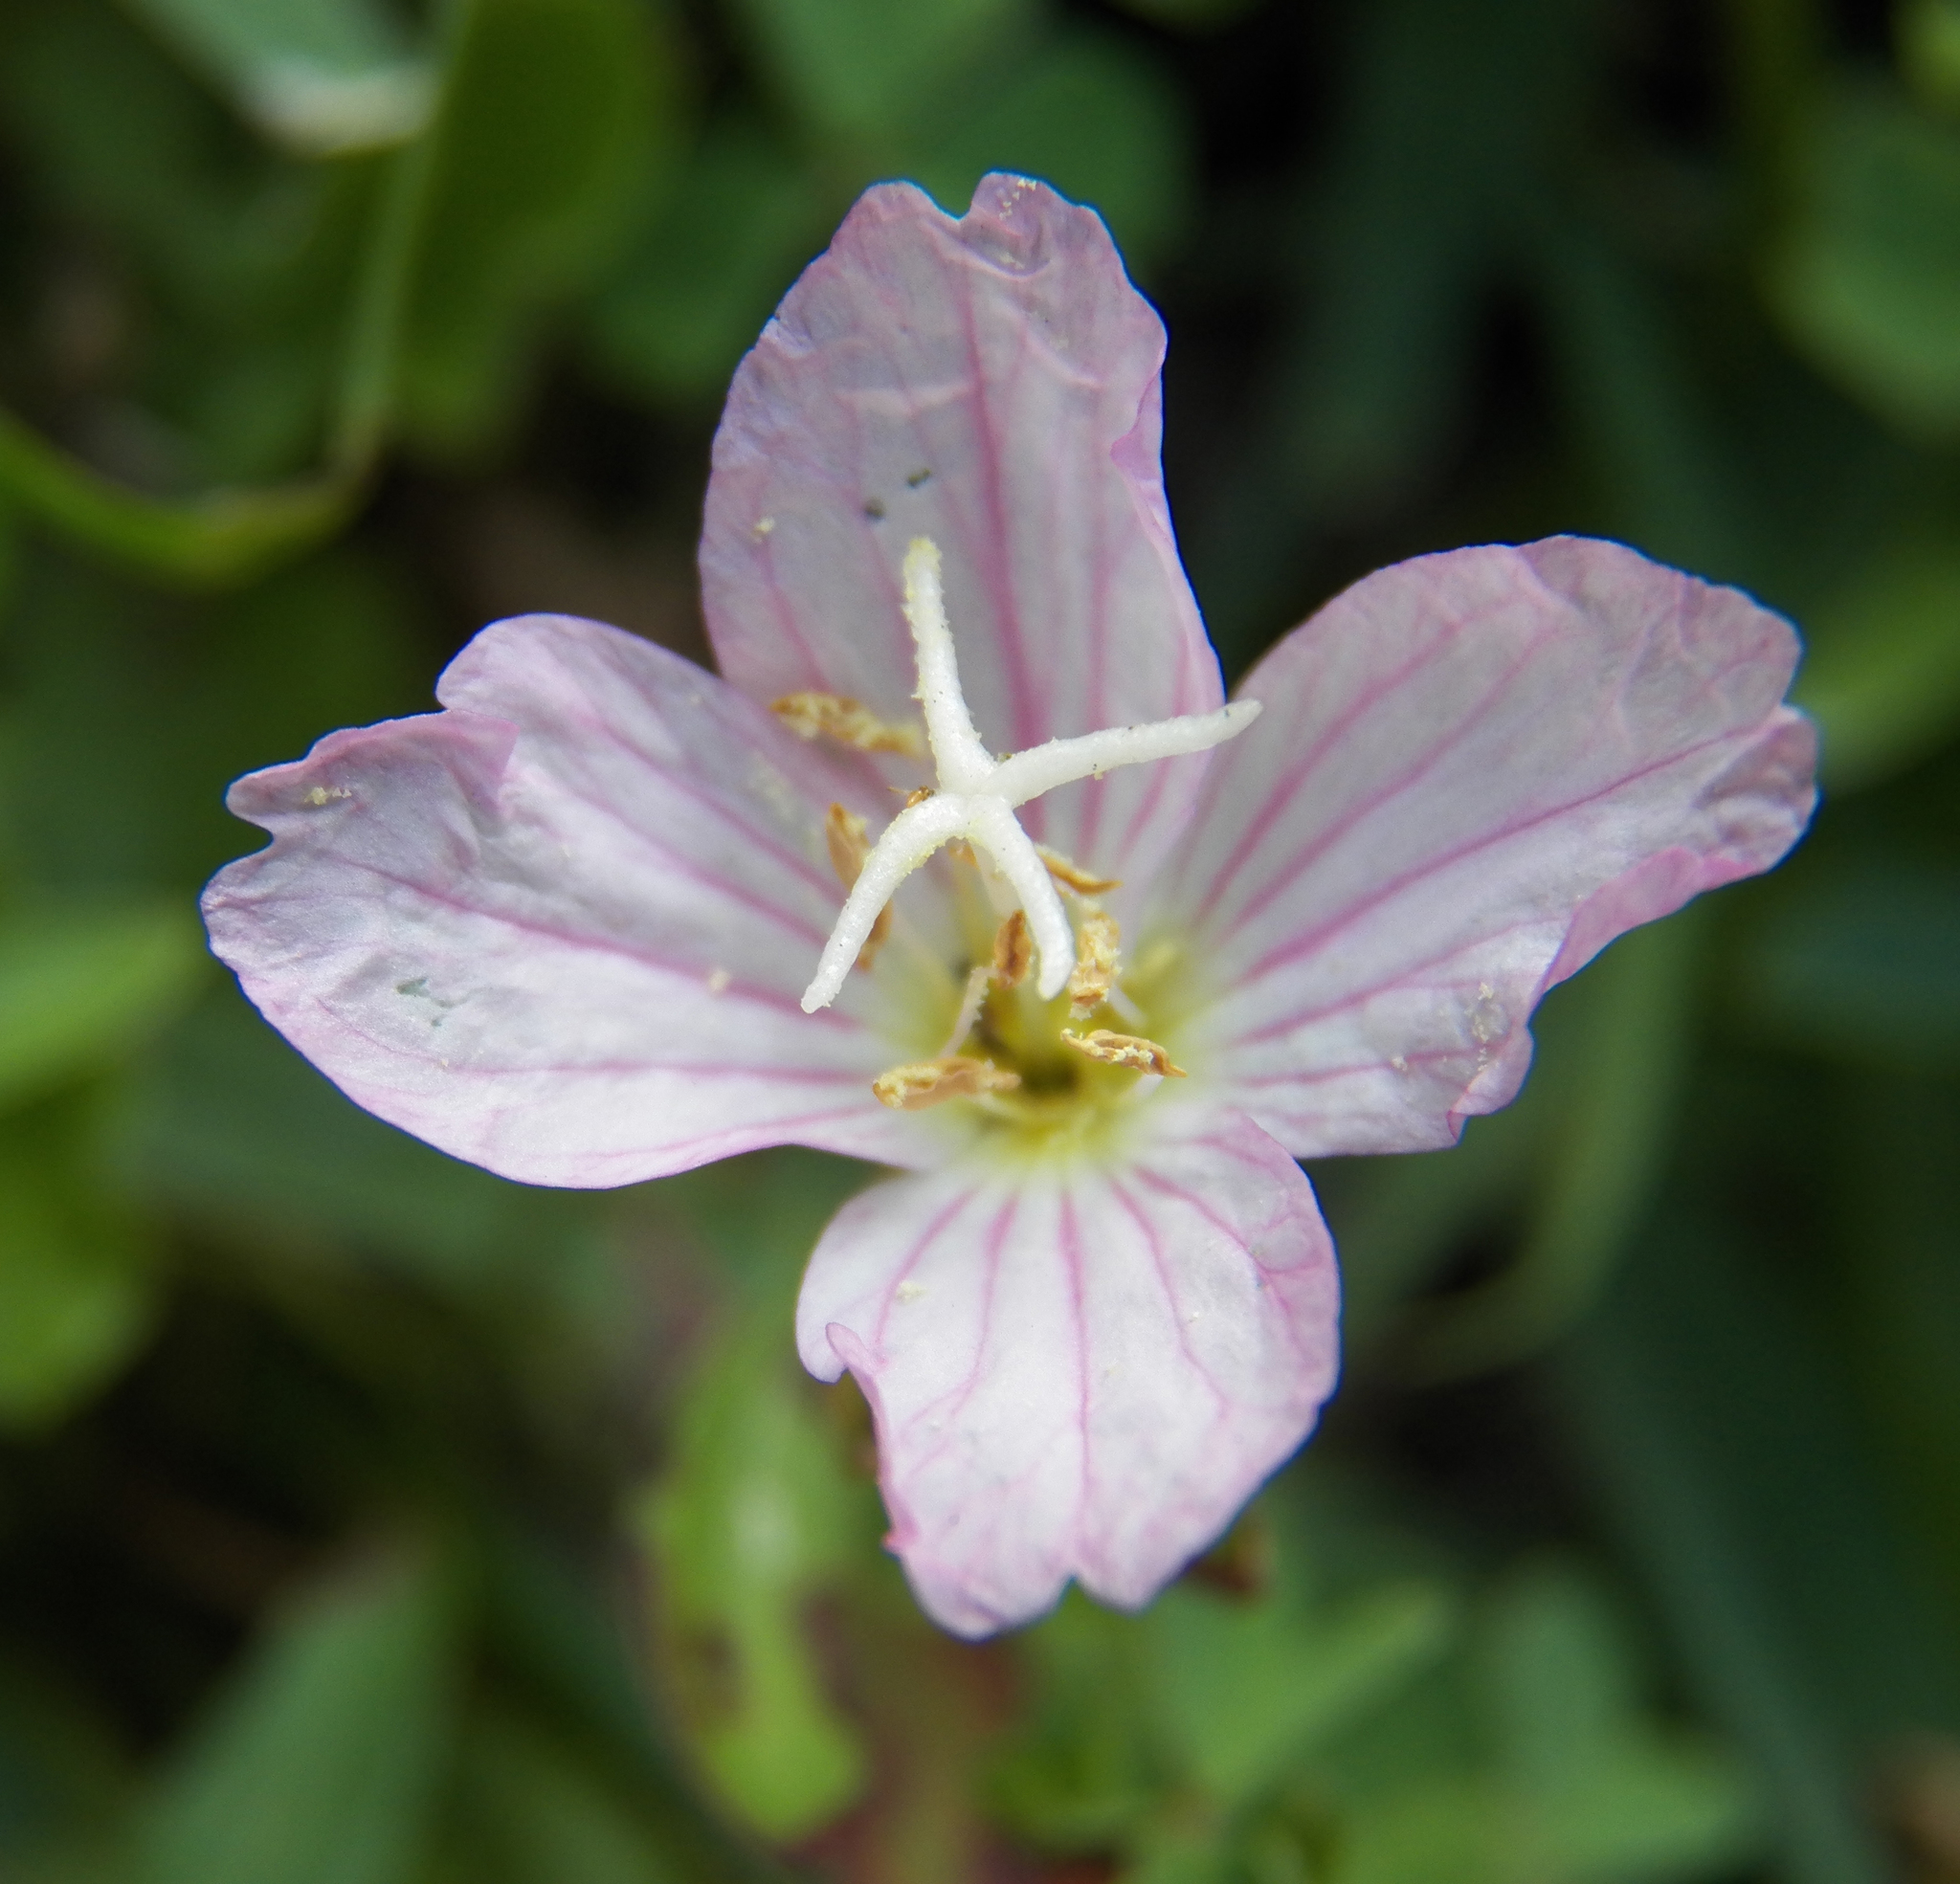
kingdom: Plantae
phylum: Tracheophyta
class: Magnoliopsida
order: Myrtales
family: Onagraceae
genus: Oenothera
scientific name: Oenothera speciosa
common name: White evening-primrose
